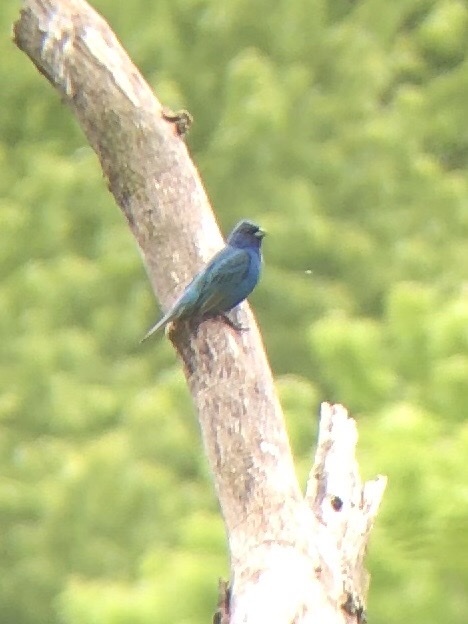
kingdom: Animalia
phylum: Chordata
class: Aves
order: Passeriformes
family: Cardinalidae
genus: Passerina
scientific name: Passerina cyanea
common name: Indigo bunting
